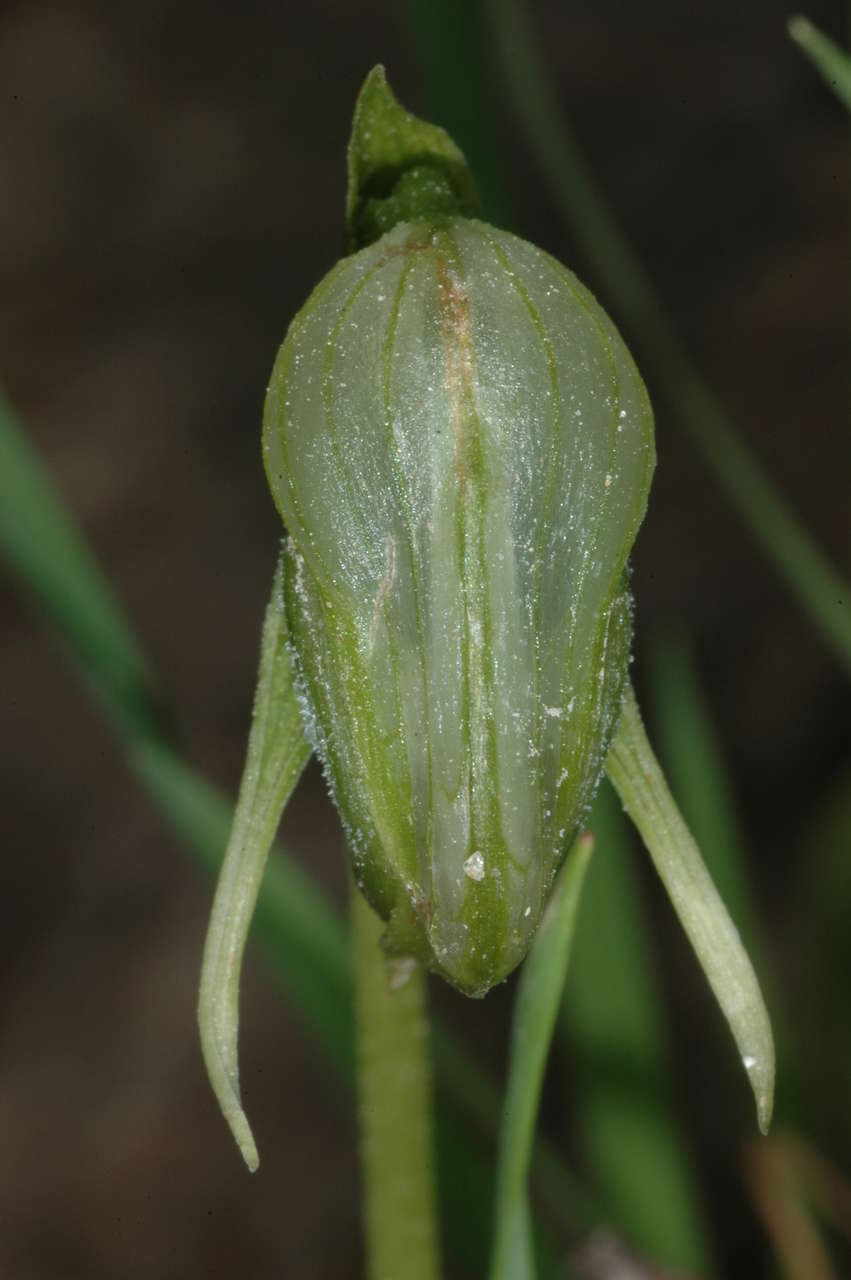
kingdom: Plantae
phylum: Tracheophyta
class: Liliopsida
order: Asparagales
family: Orchidaceae
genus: Pterostylis
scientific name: Pterostylis nutans
